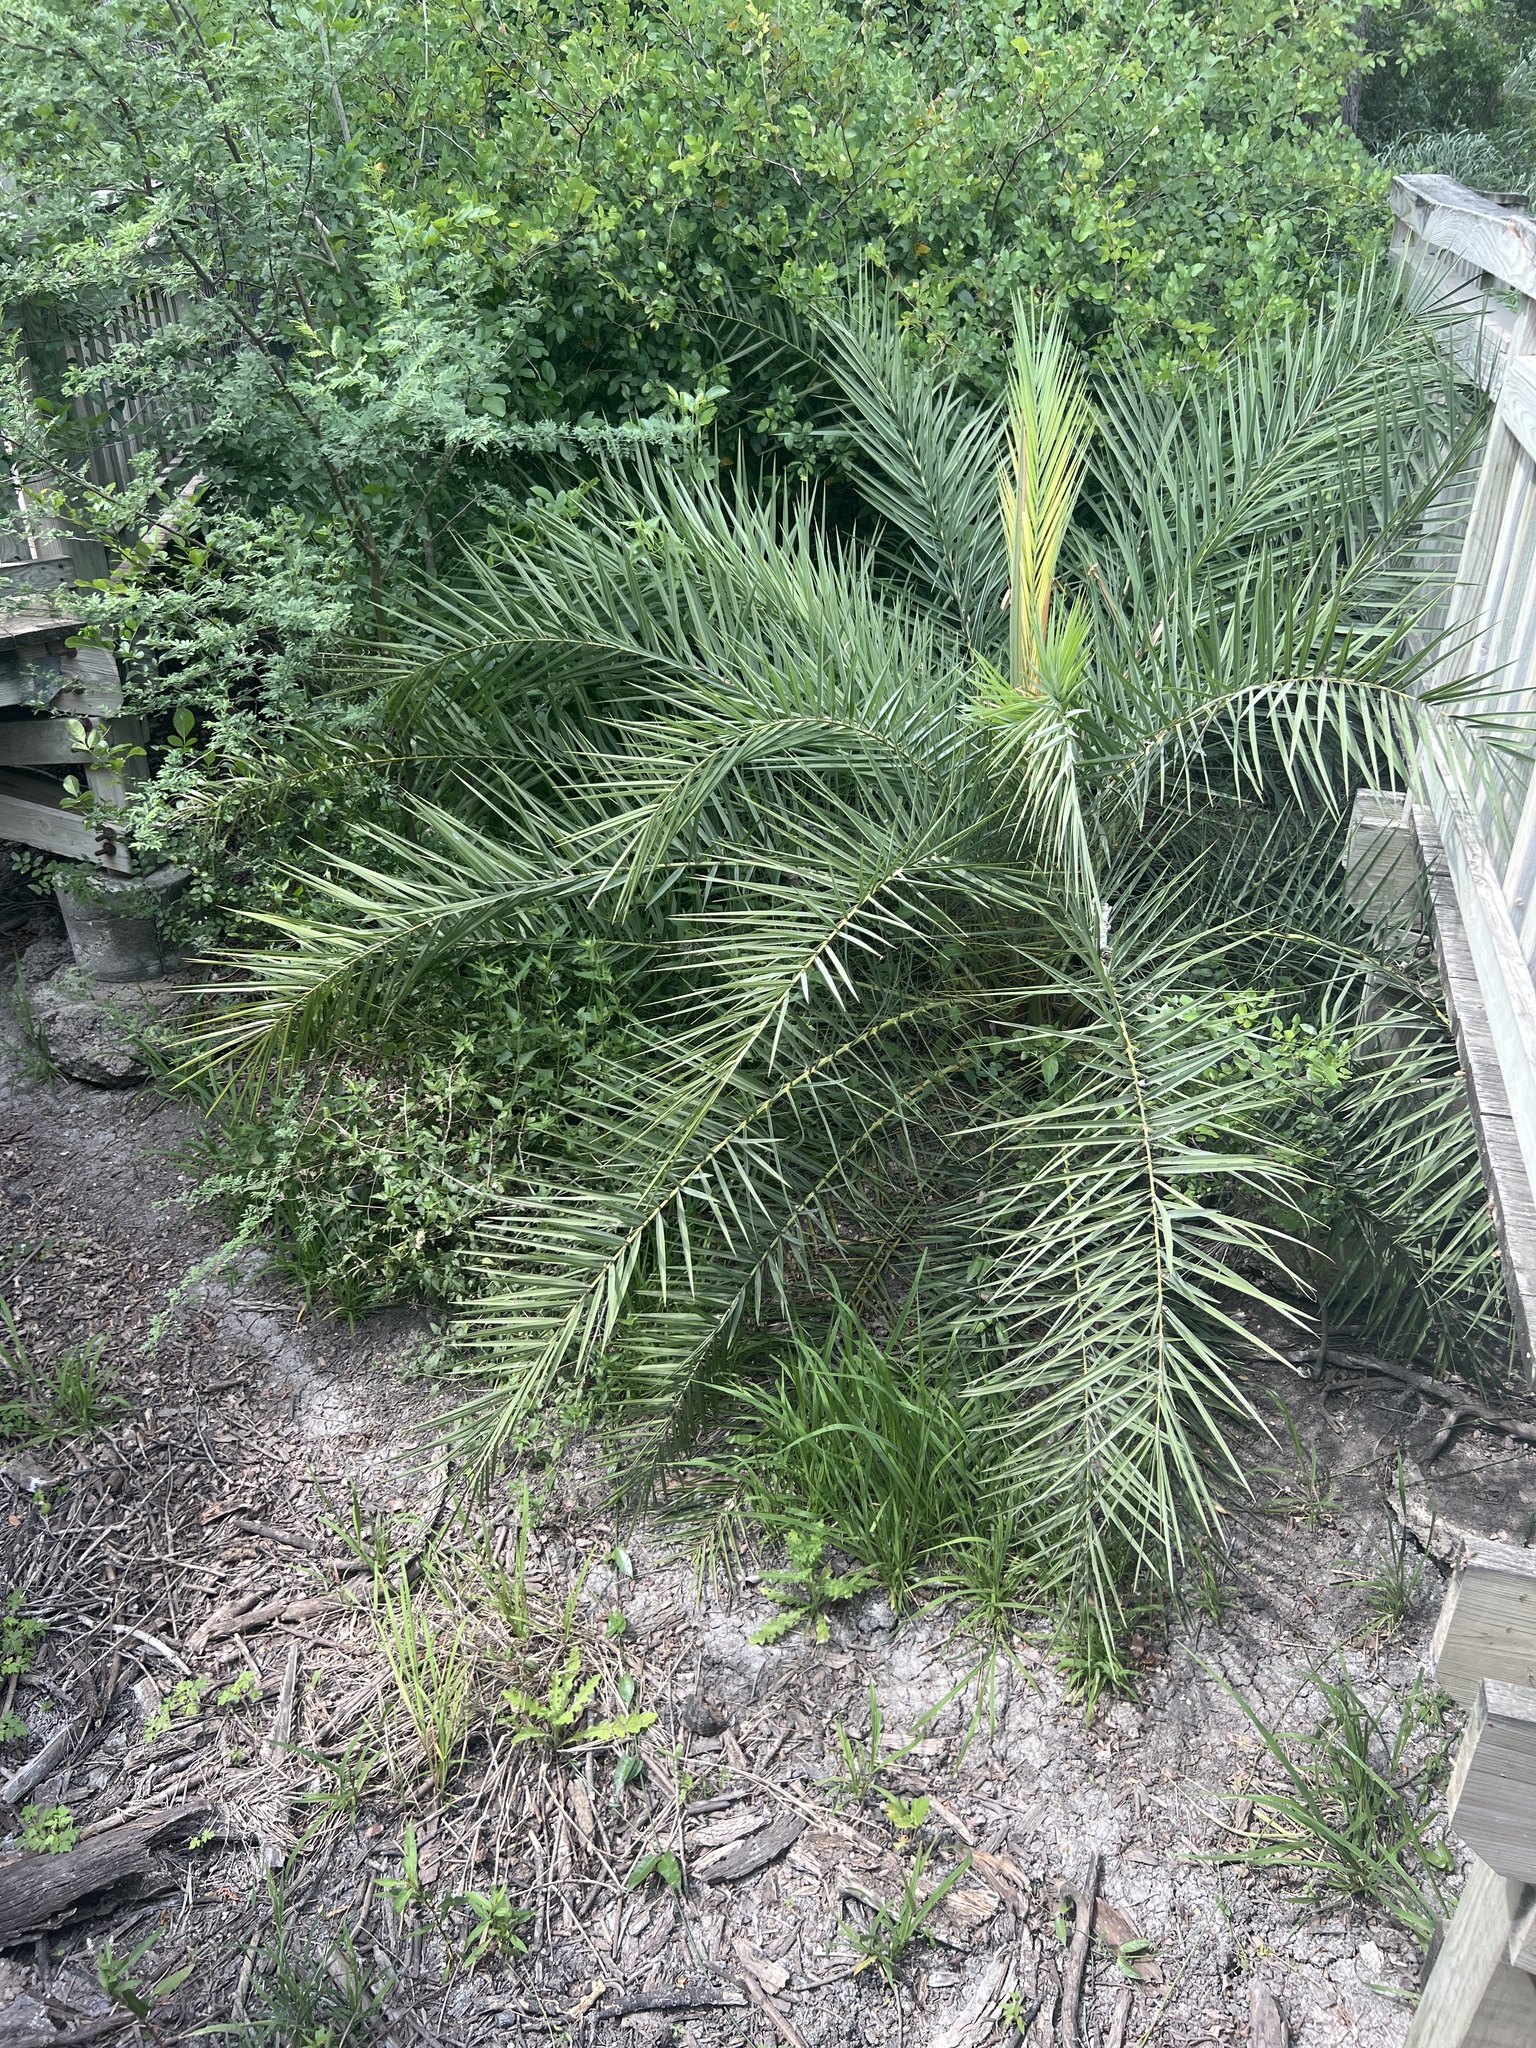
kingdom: Plantae
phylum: Tracheophyta
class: Liliopsida
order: Arecales
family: Arecaceae
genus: Phoenix
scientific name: Phoenix canariensis
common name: Canary island date palm
